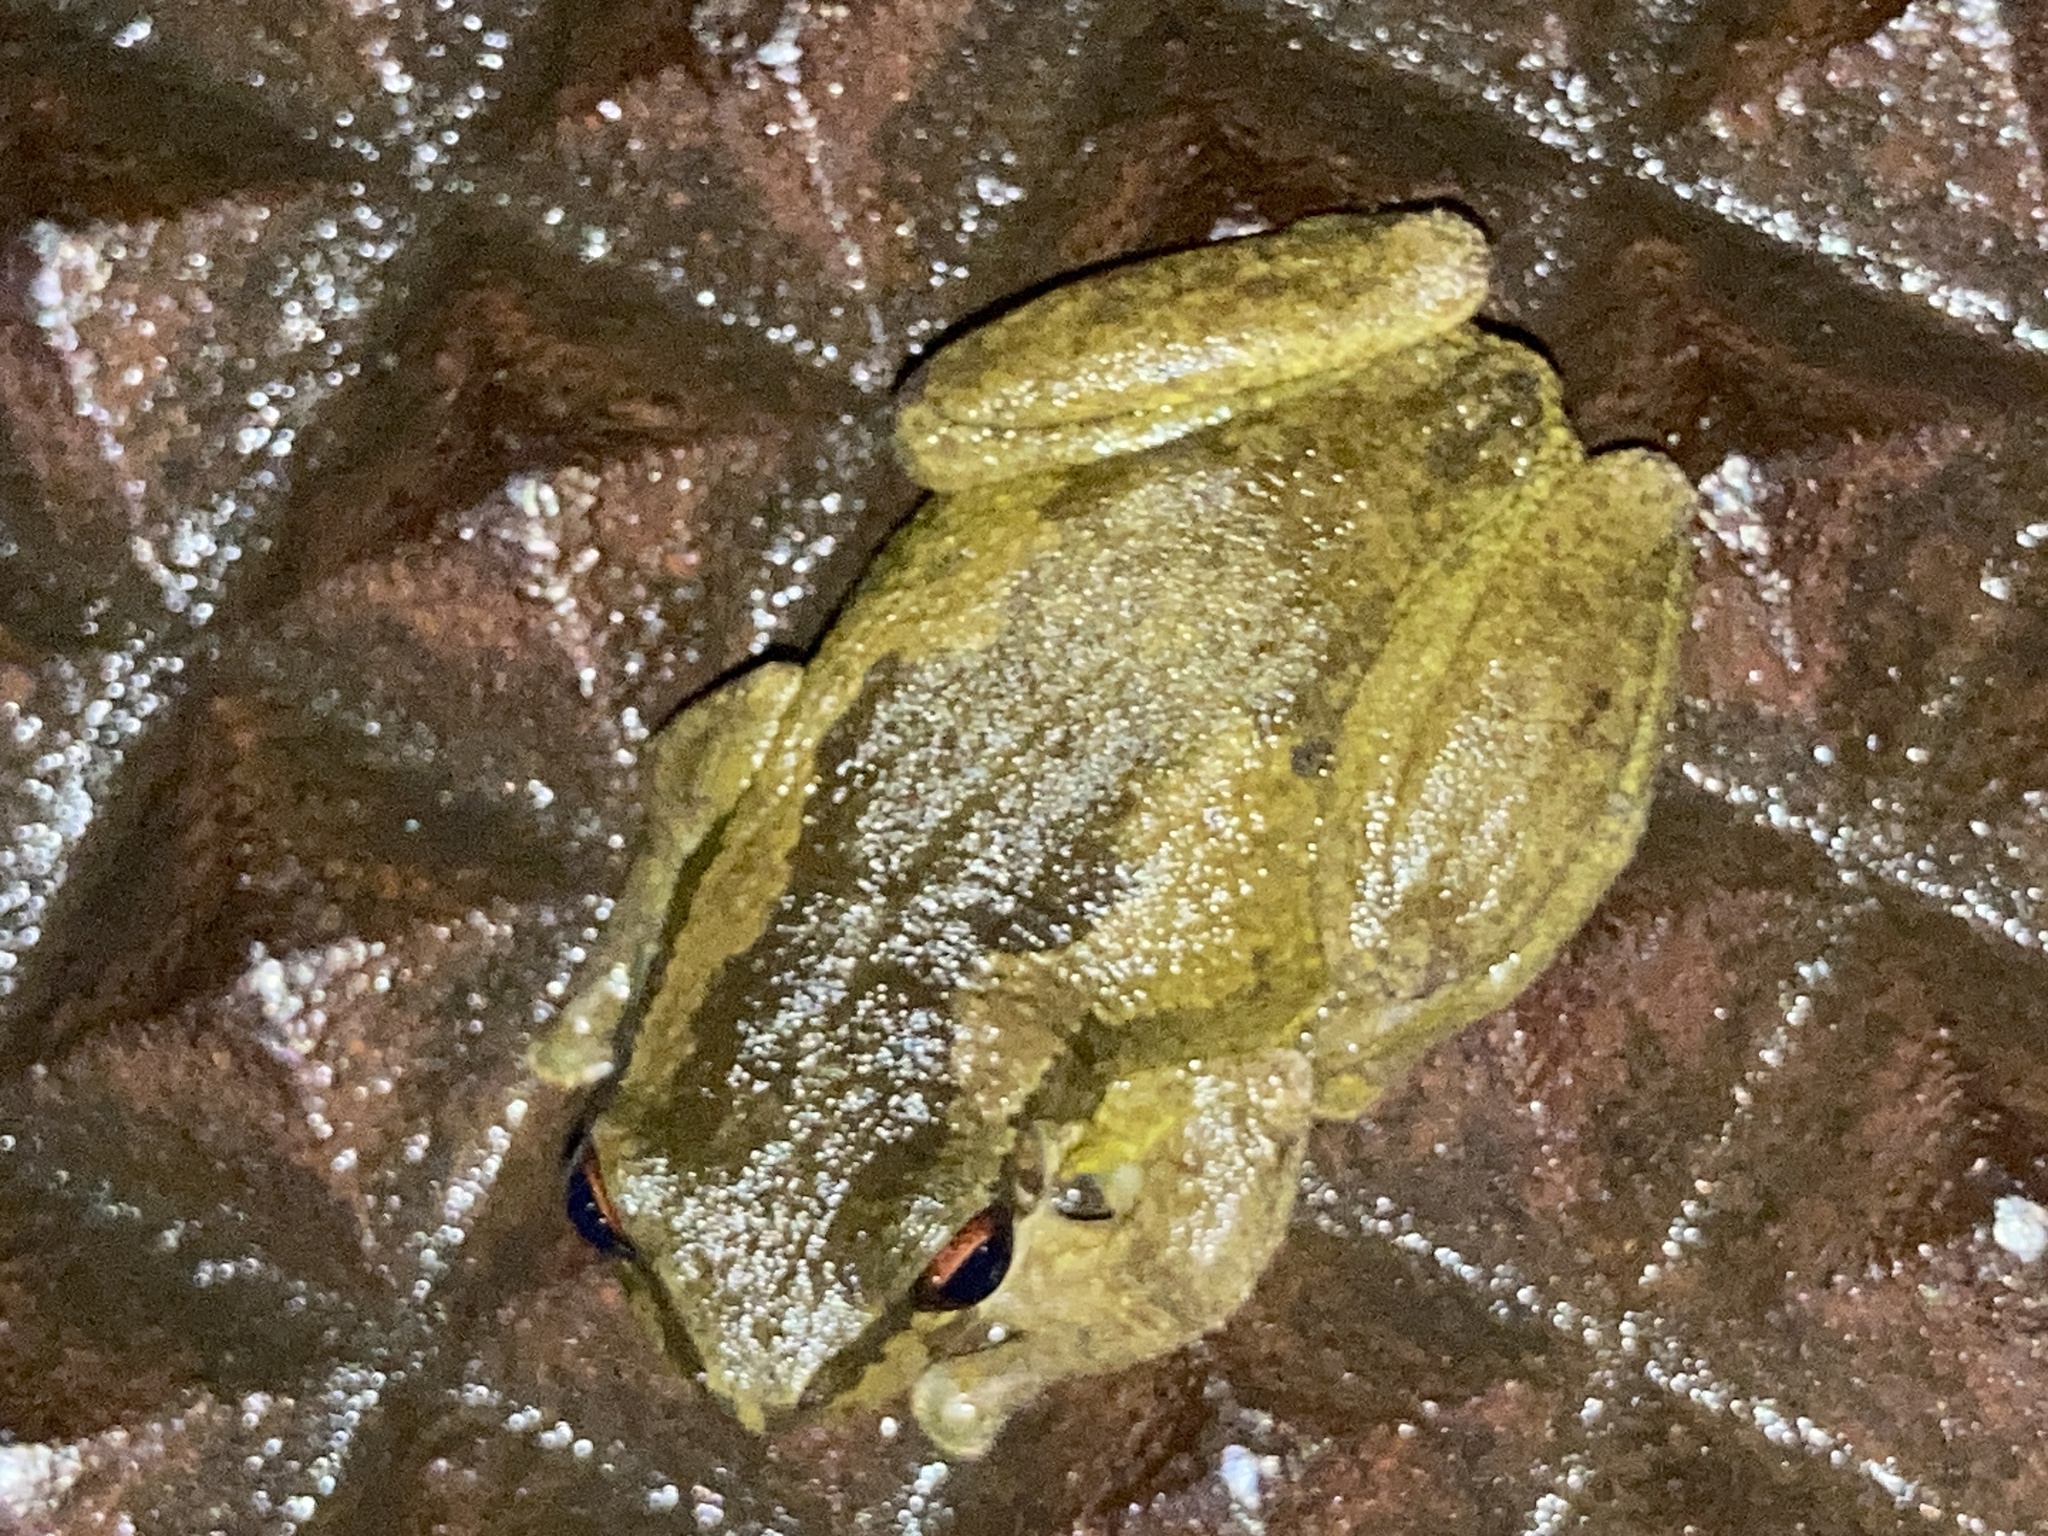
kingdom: Animalia
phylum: Chordata
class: Amphibia
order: Anura
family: Pelodryadidae
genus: Litoria
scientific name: Litoria quiritatus
